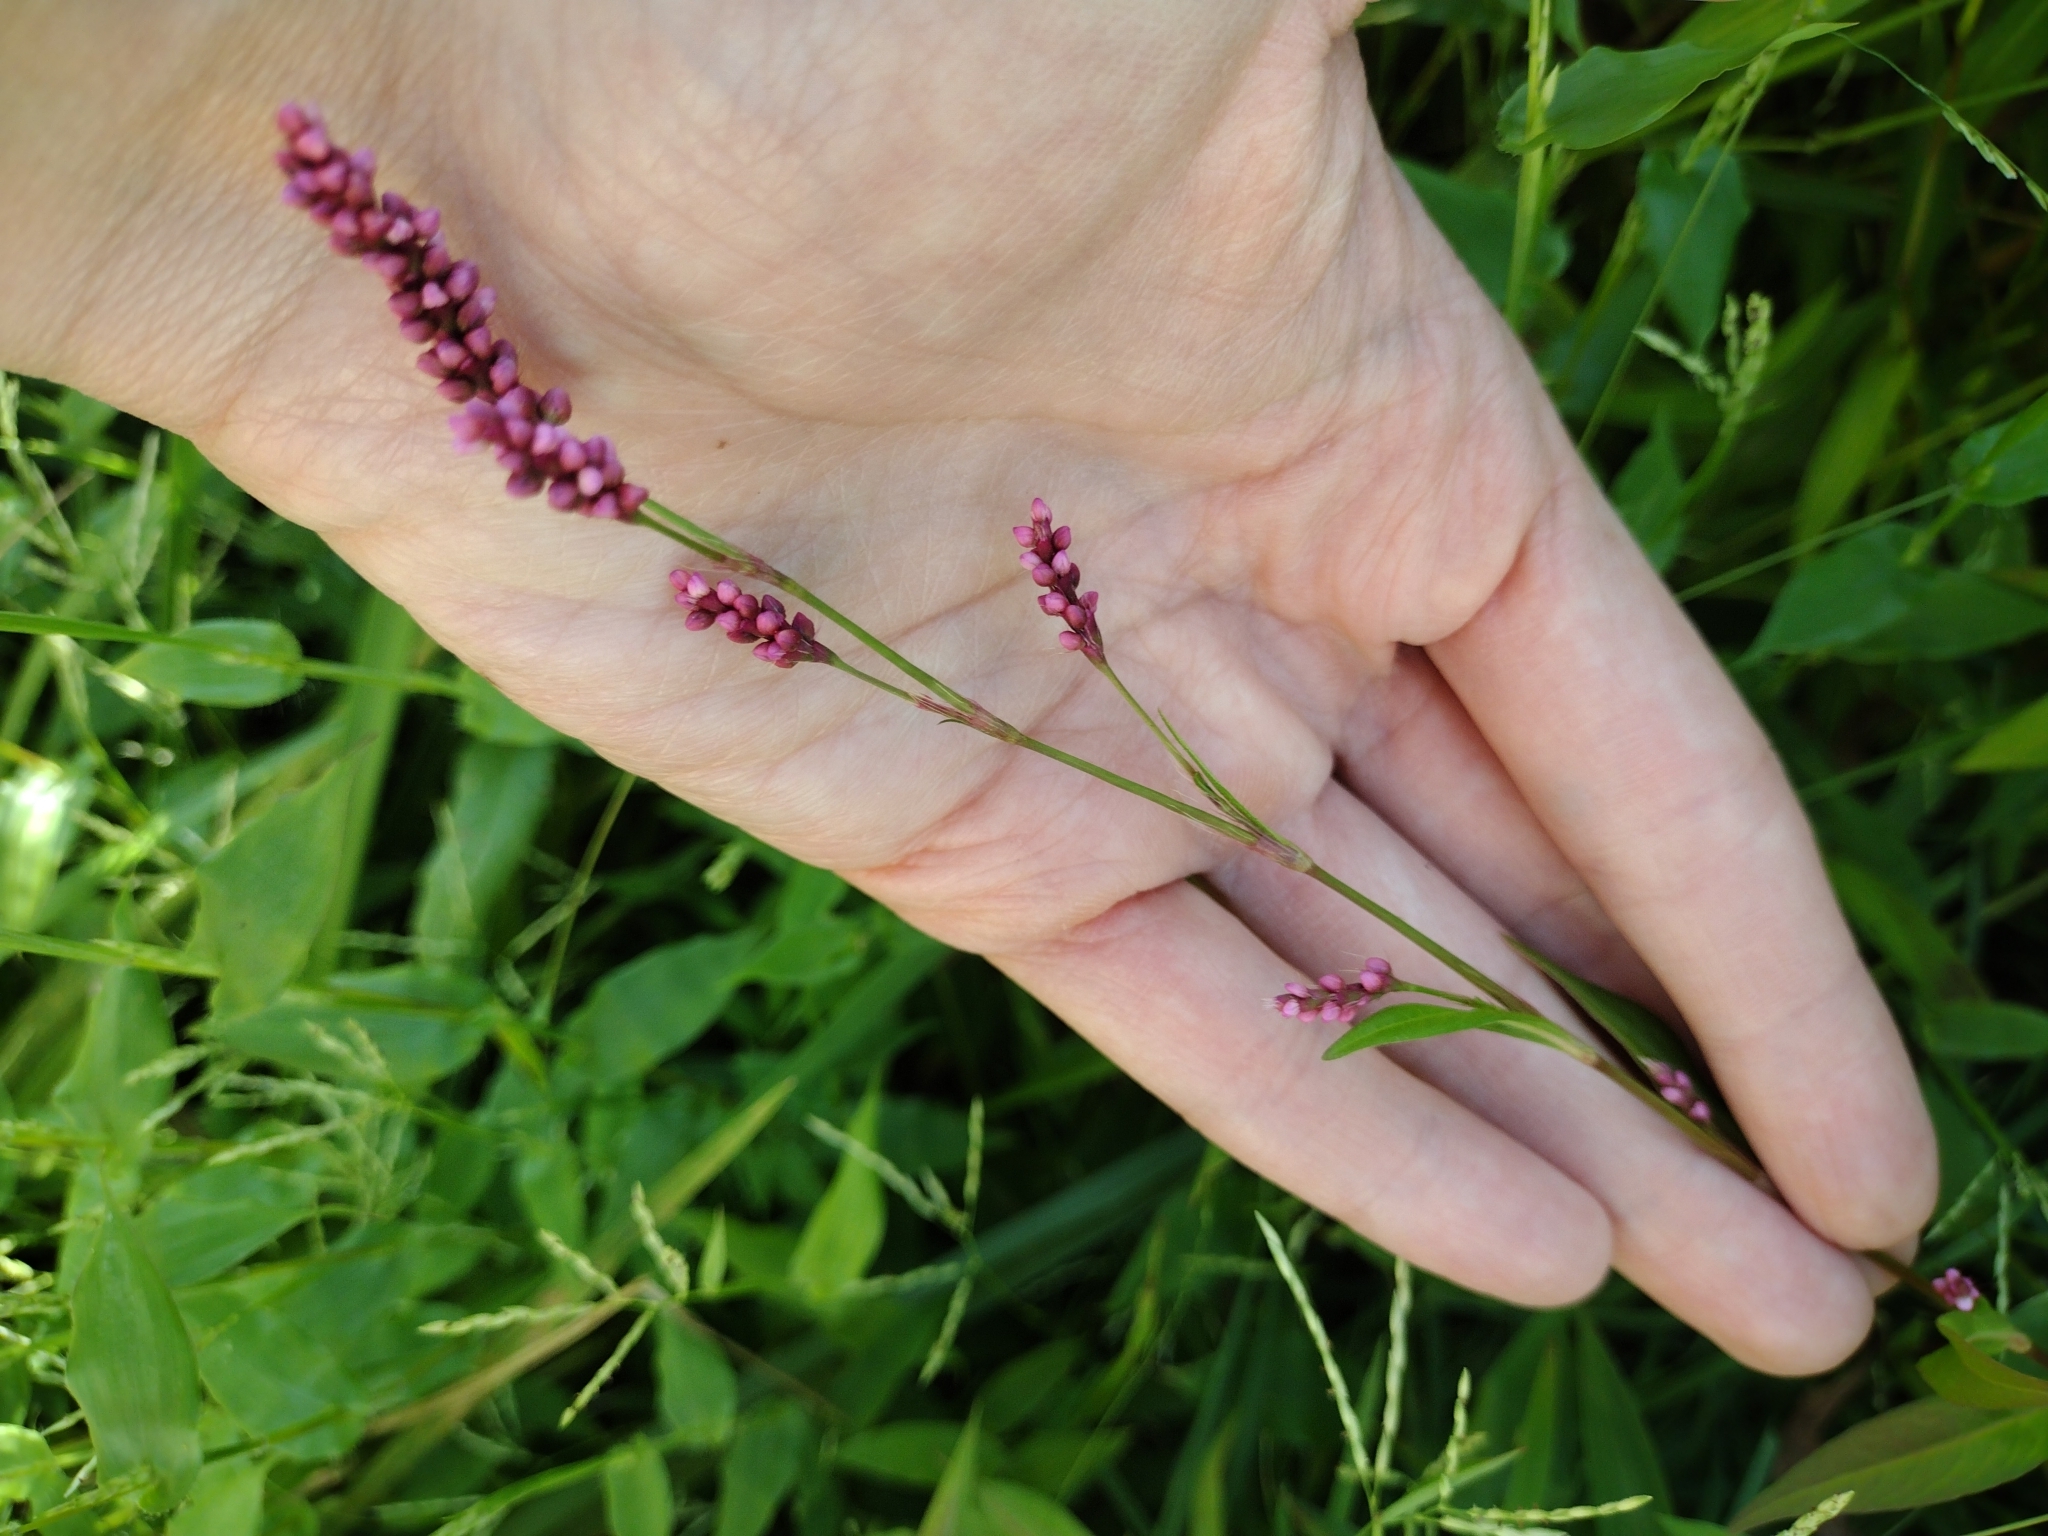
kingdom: Plantae
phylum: Tracheophyta
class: Magnoliopsida
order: Caryophyllales
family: Polygonaceae
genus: Persicaria
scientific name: Persicaria longiseta
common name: Bristly lady's-thumb
